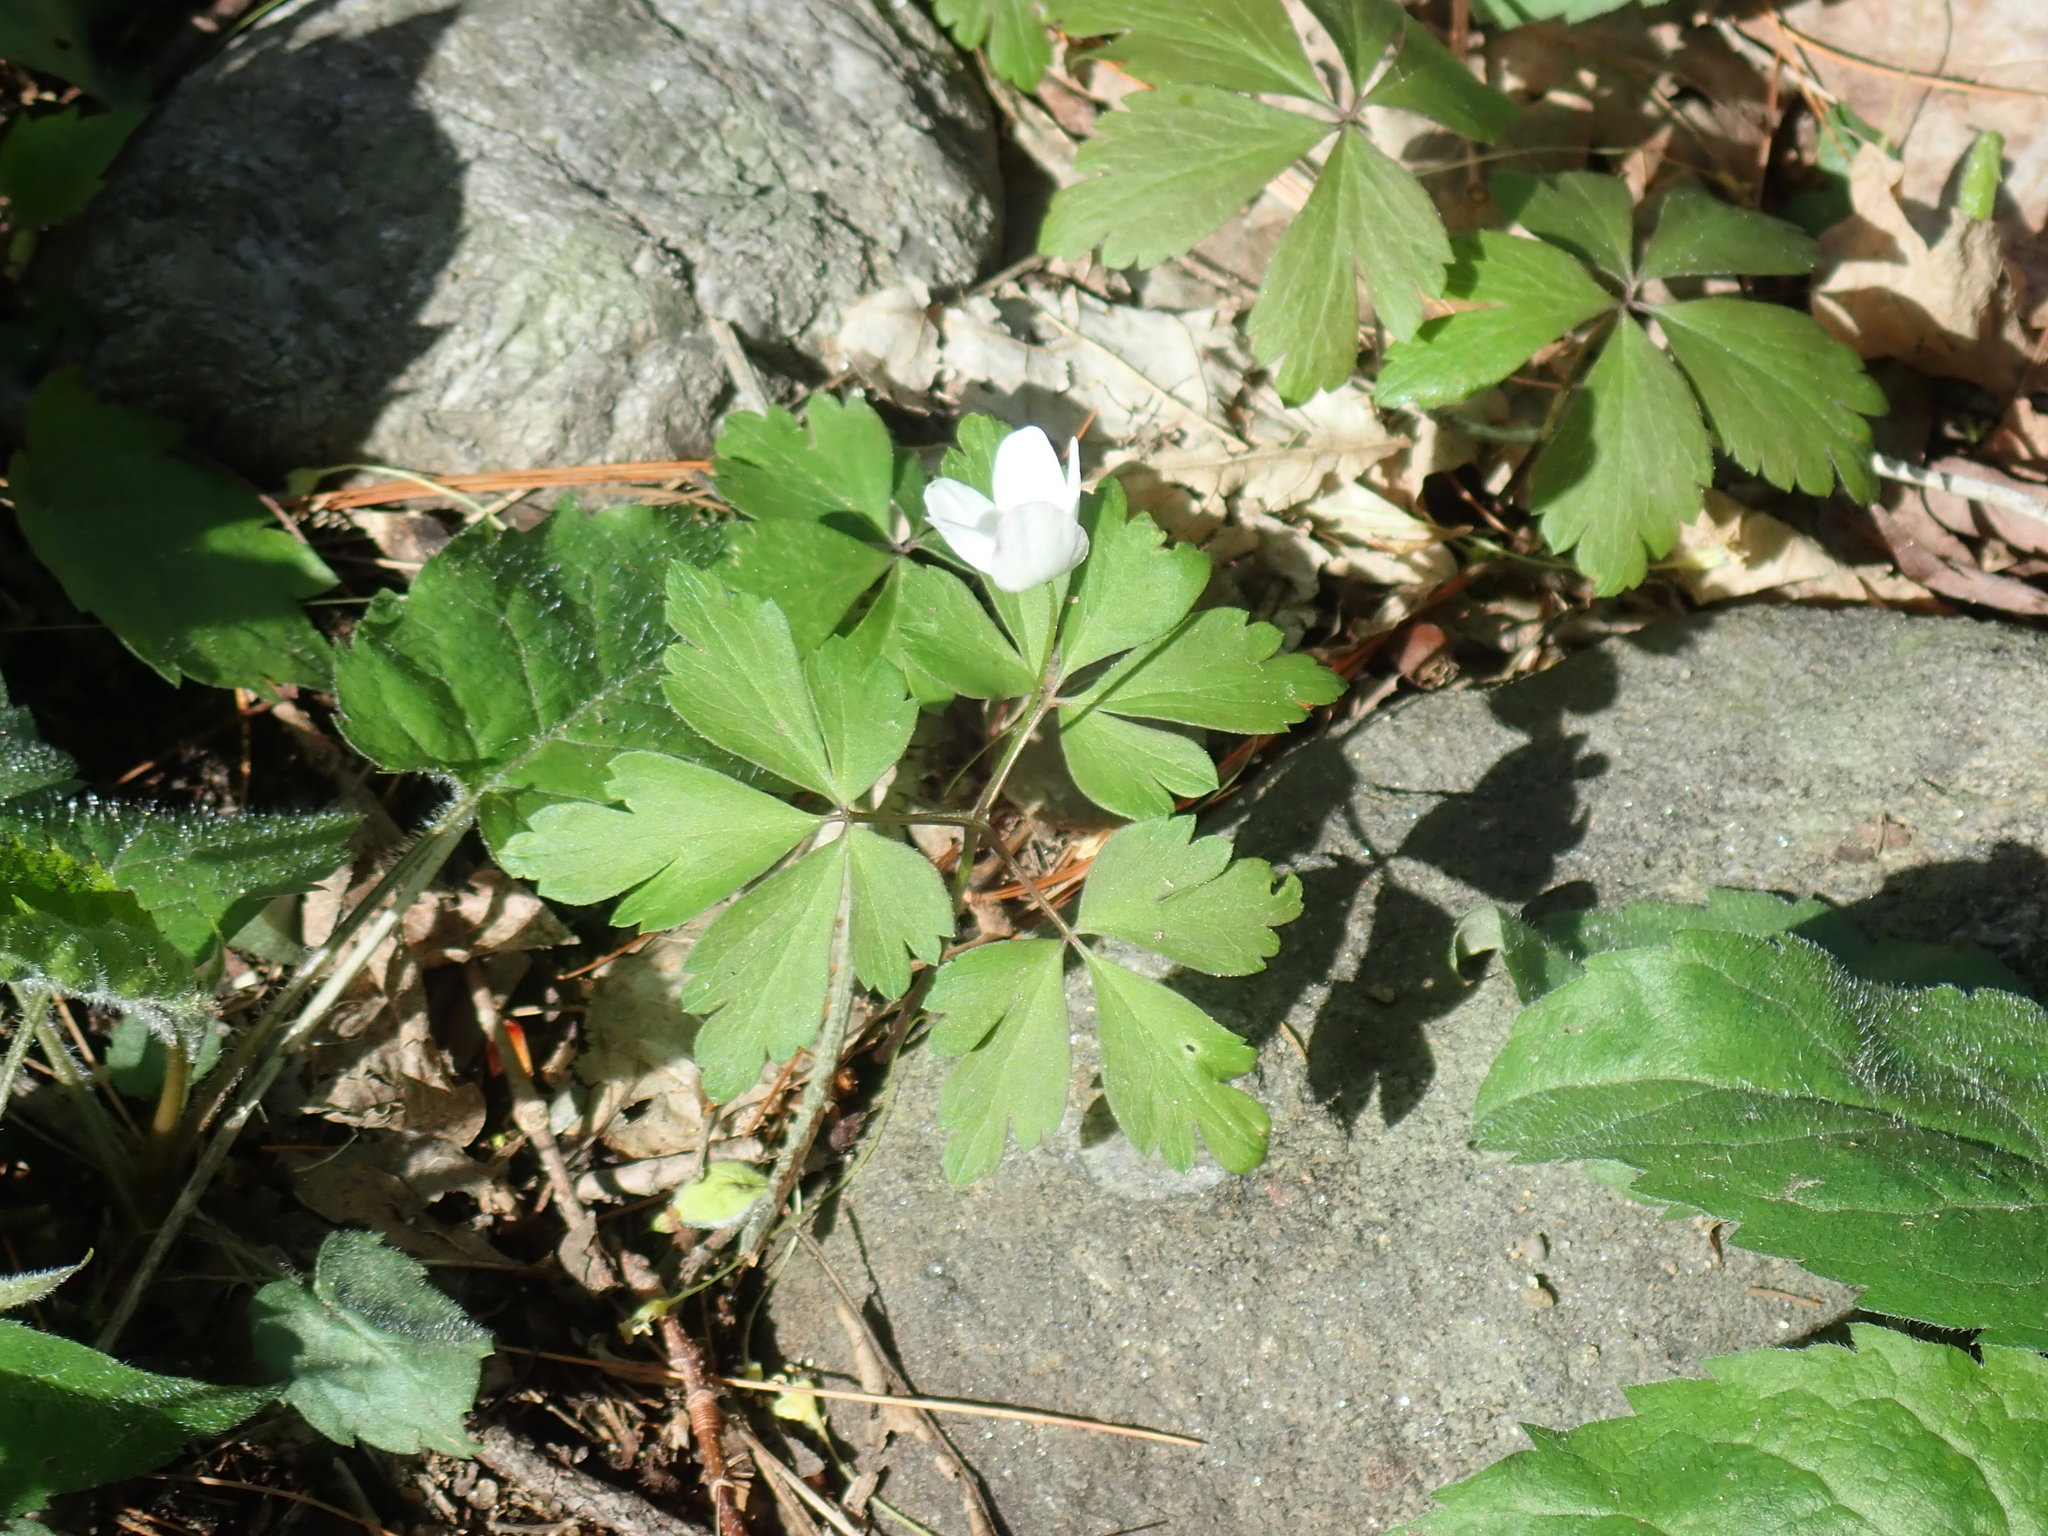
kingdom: Plantae
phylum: Tracheophyta
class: Magnoliopsida
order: Ranunculales
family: Ranunculaceae
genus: Anemone
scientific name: Anemone quinquefolia
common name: Wood anemone
